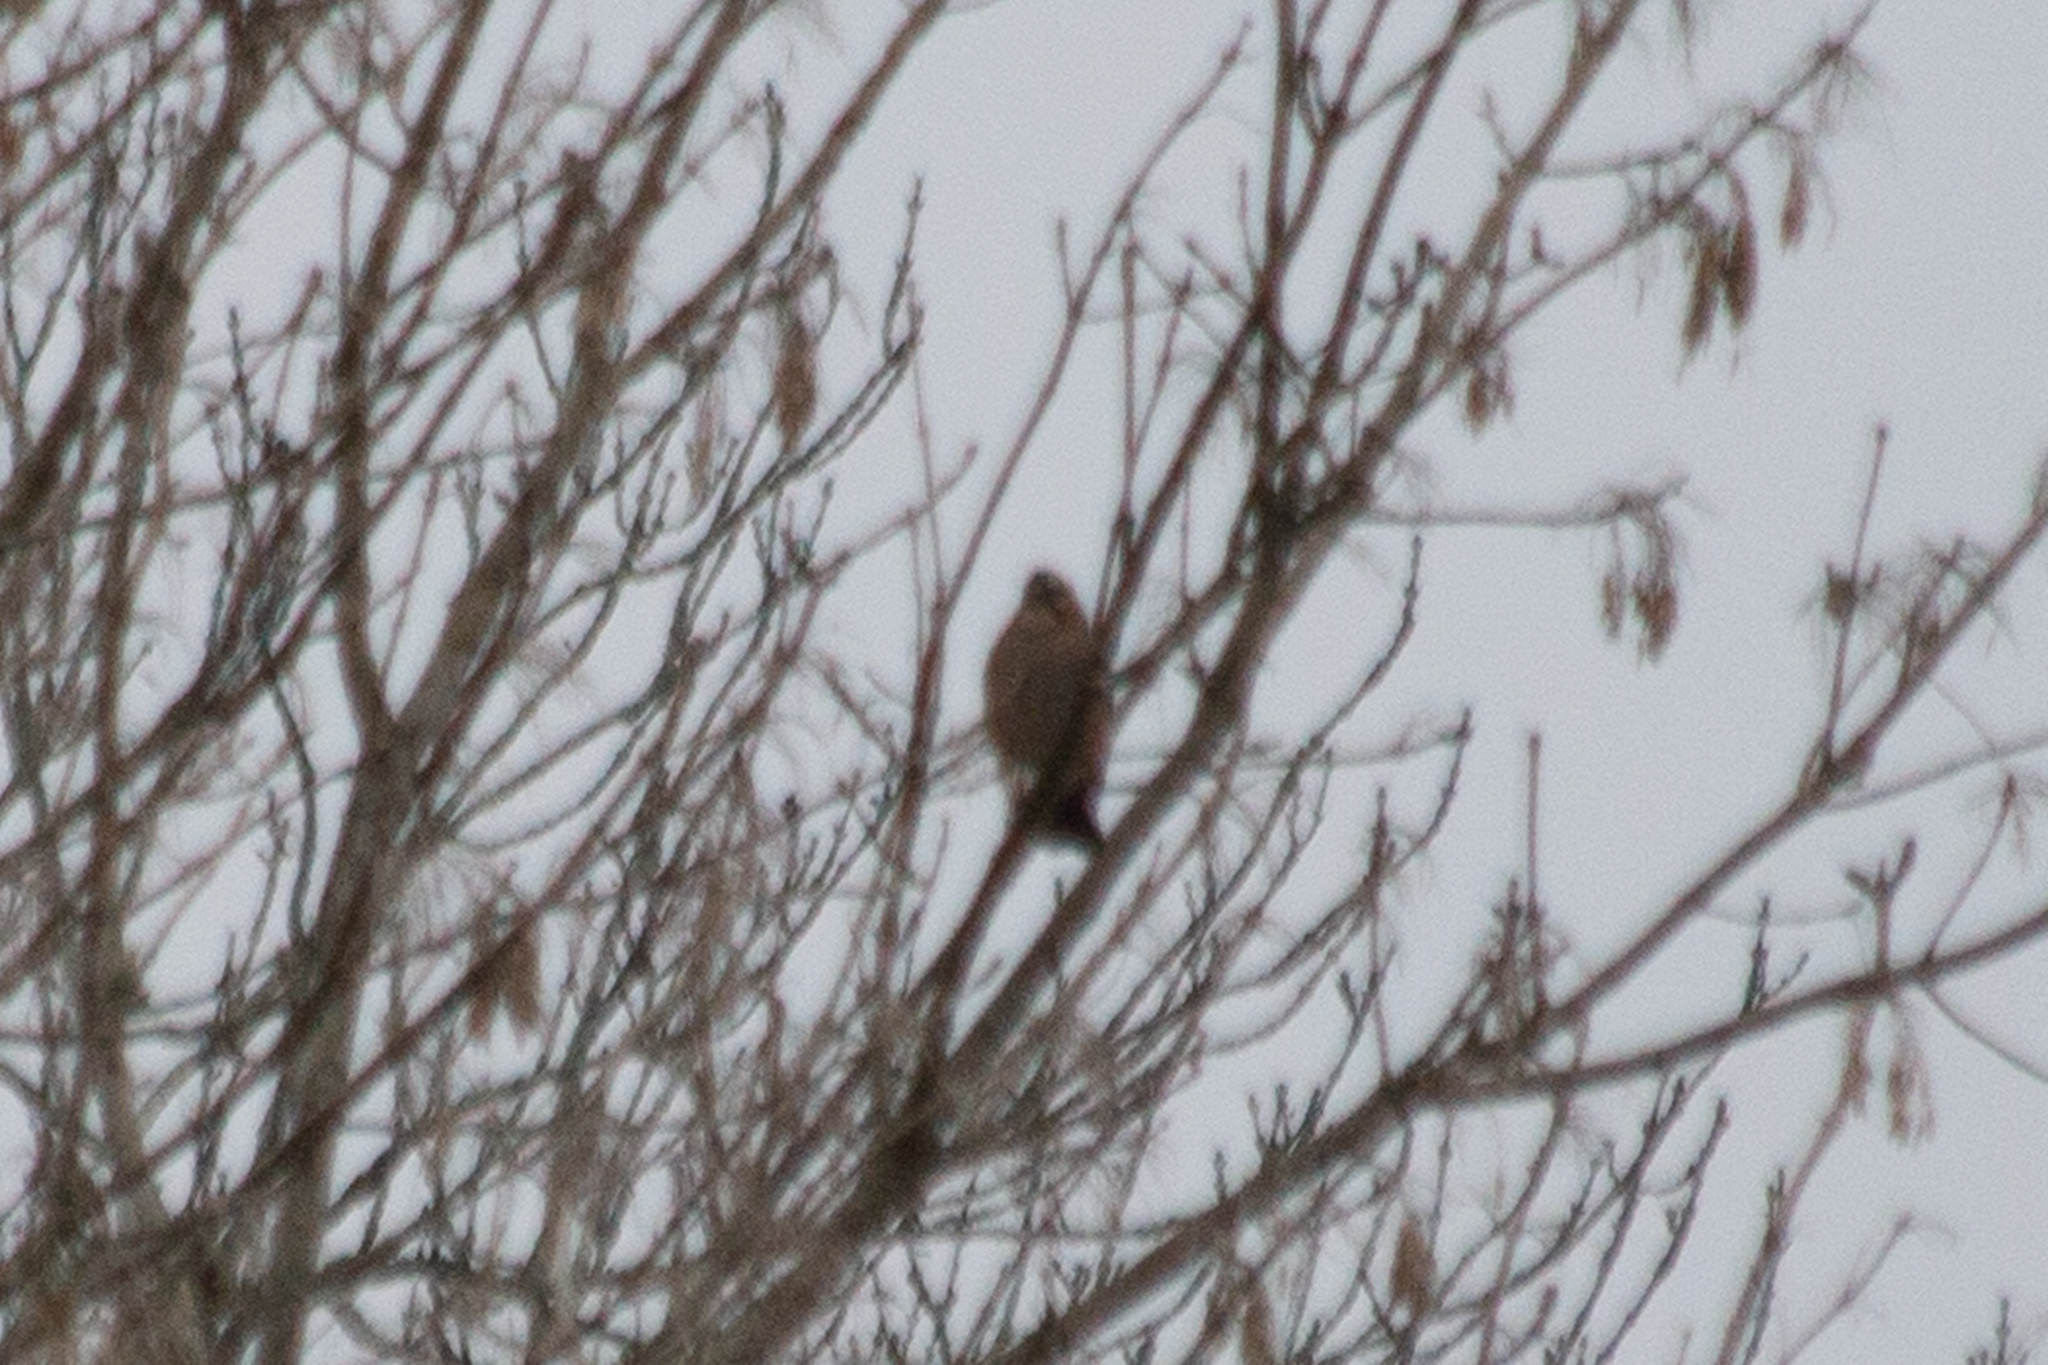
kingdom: Animalia
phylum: Chordata
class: Aves
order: Passeriformes
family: Corvidae
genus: Garrulus
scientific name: Garrulus glandarius
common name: Eurasian jay
